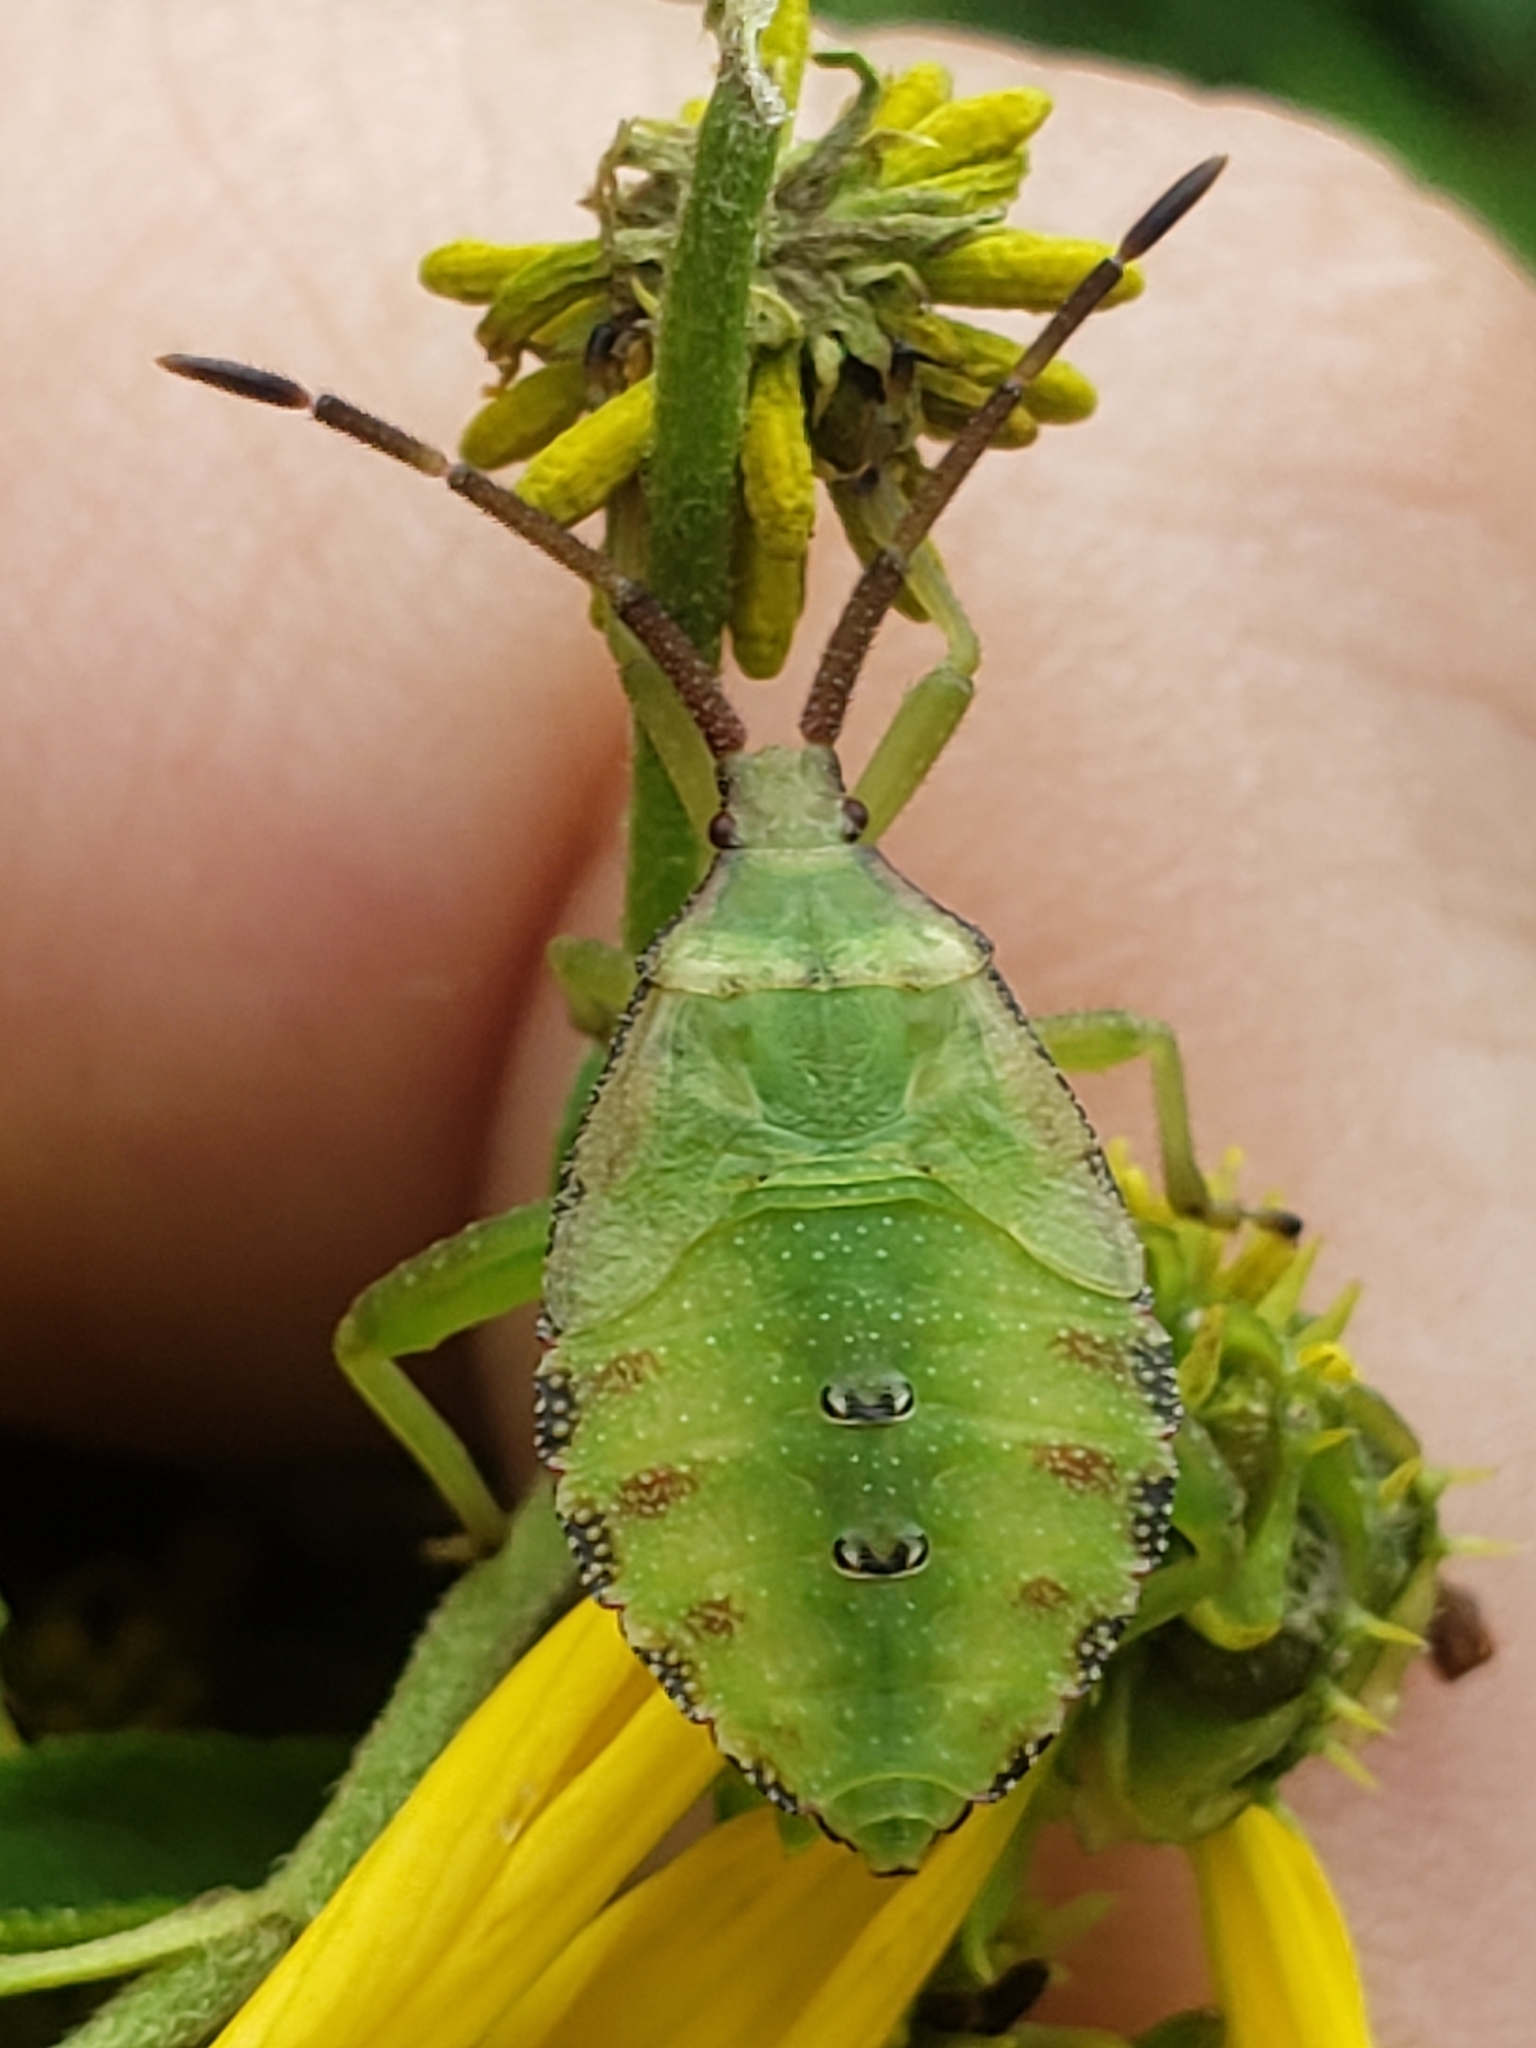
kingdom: Animalia
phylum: Arthropoda
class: Insecta
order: Hemiptera
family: Coreidae
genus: Piezogaster
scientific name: Piezogaster calcarator
